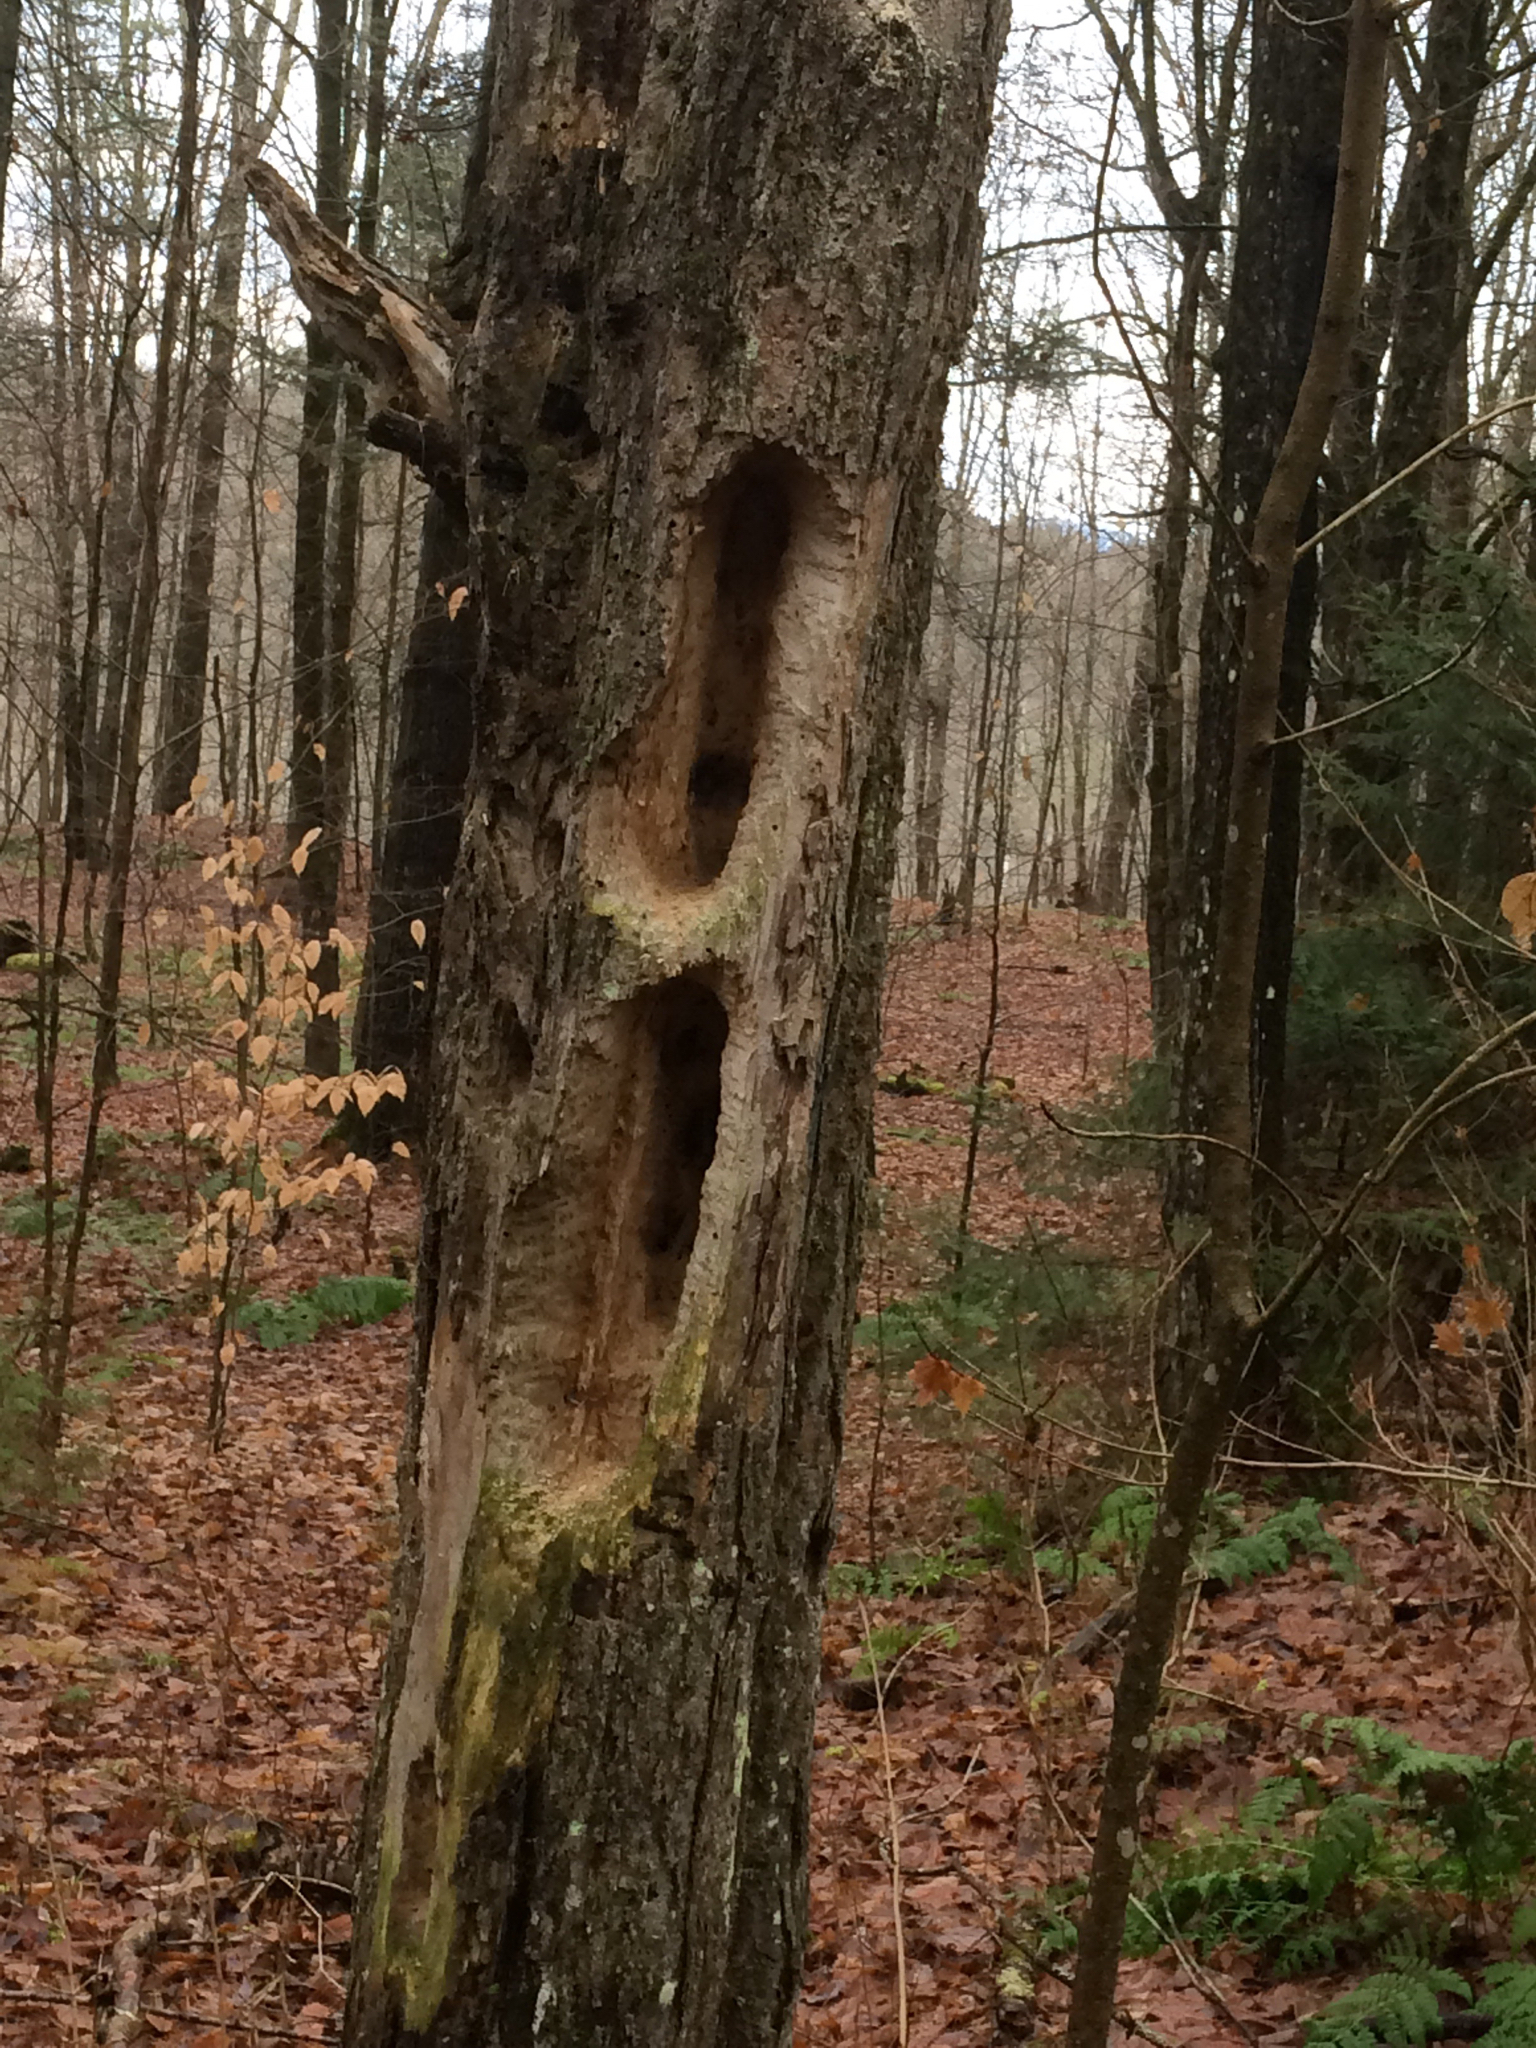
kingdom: Animalia
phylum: Chordata
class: Aves
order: Piciformes
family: Picidae
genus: Dryocopus
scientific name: Dryocopus pileatus
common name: Pileated woodpecker
